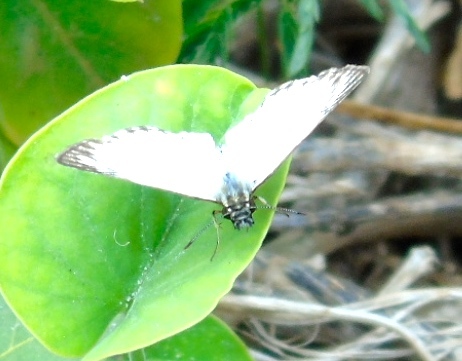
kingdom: Animalia
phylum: Arthropoda
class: Insecta
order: Lepidoptera
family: Hesperiidae
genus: Heliopetes
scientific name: Heliopetes
